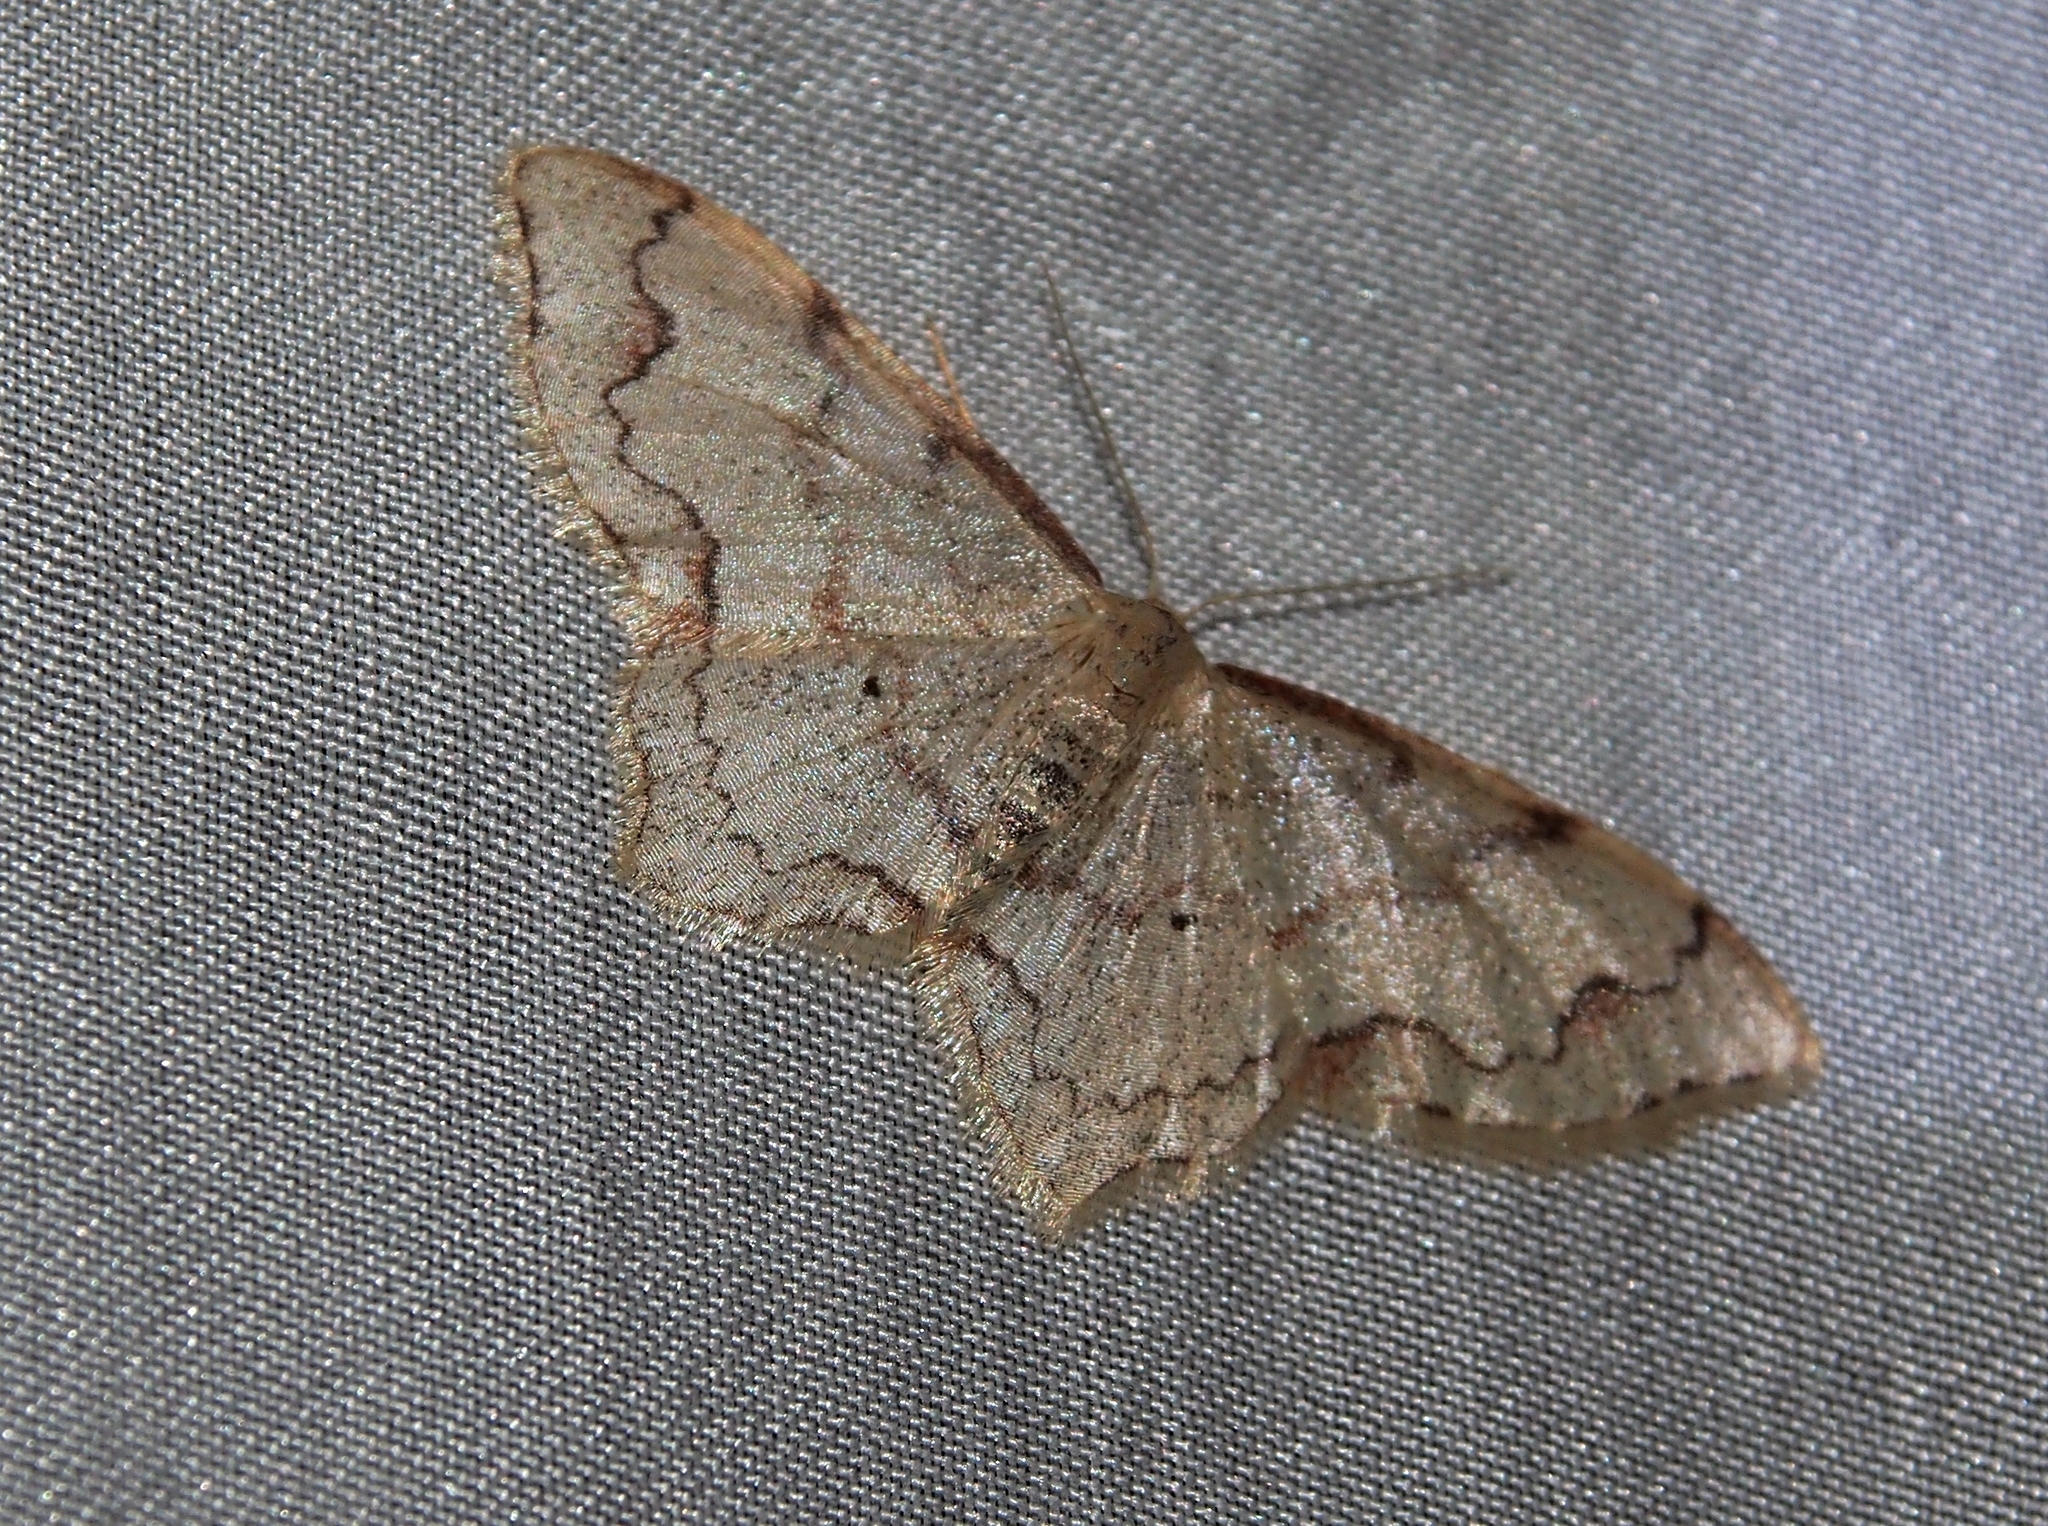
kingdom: Animalia
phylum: Arthropoda
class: Insecta
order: Lepidoptera
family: Geometridae
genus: Lobocleta
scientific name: Lobocleta subcincta
